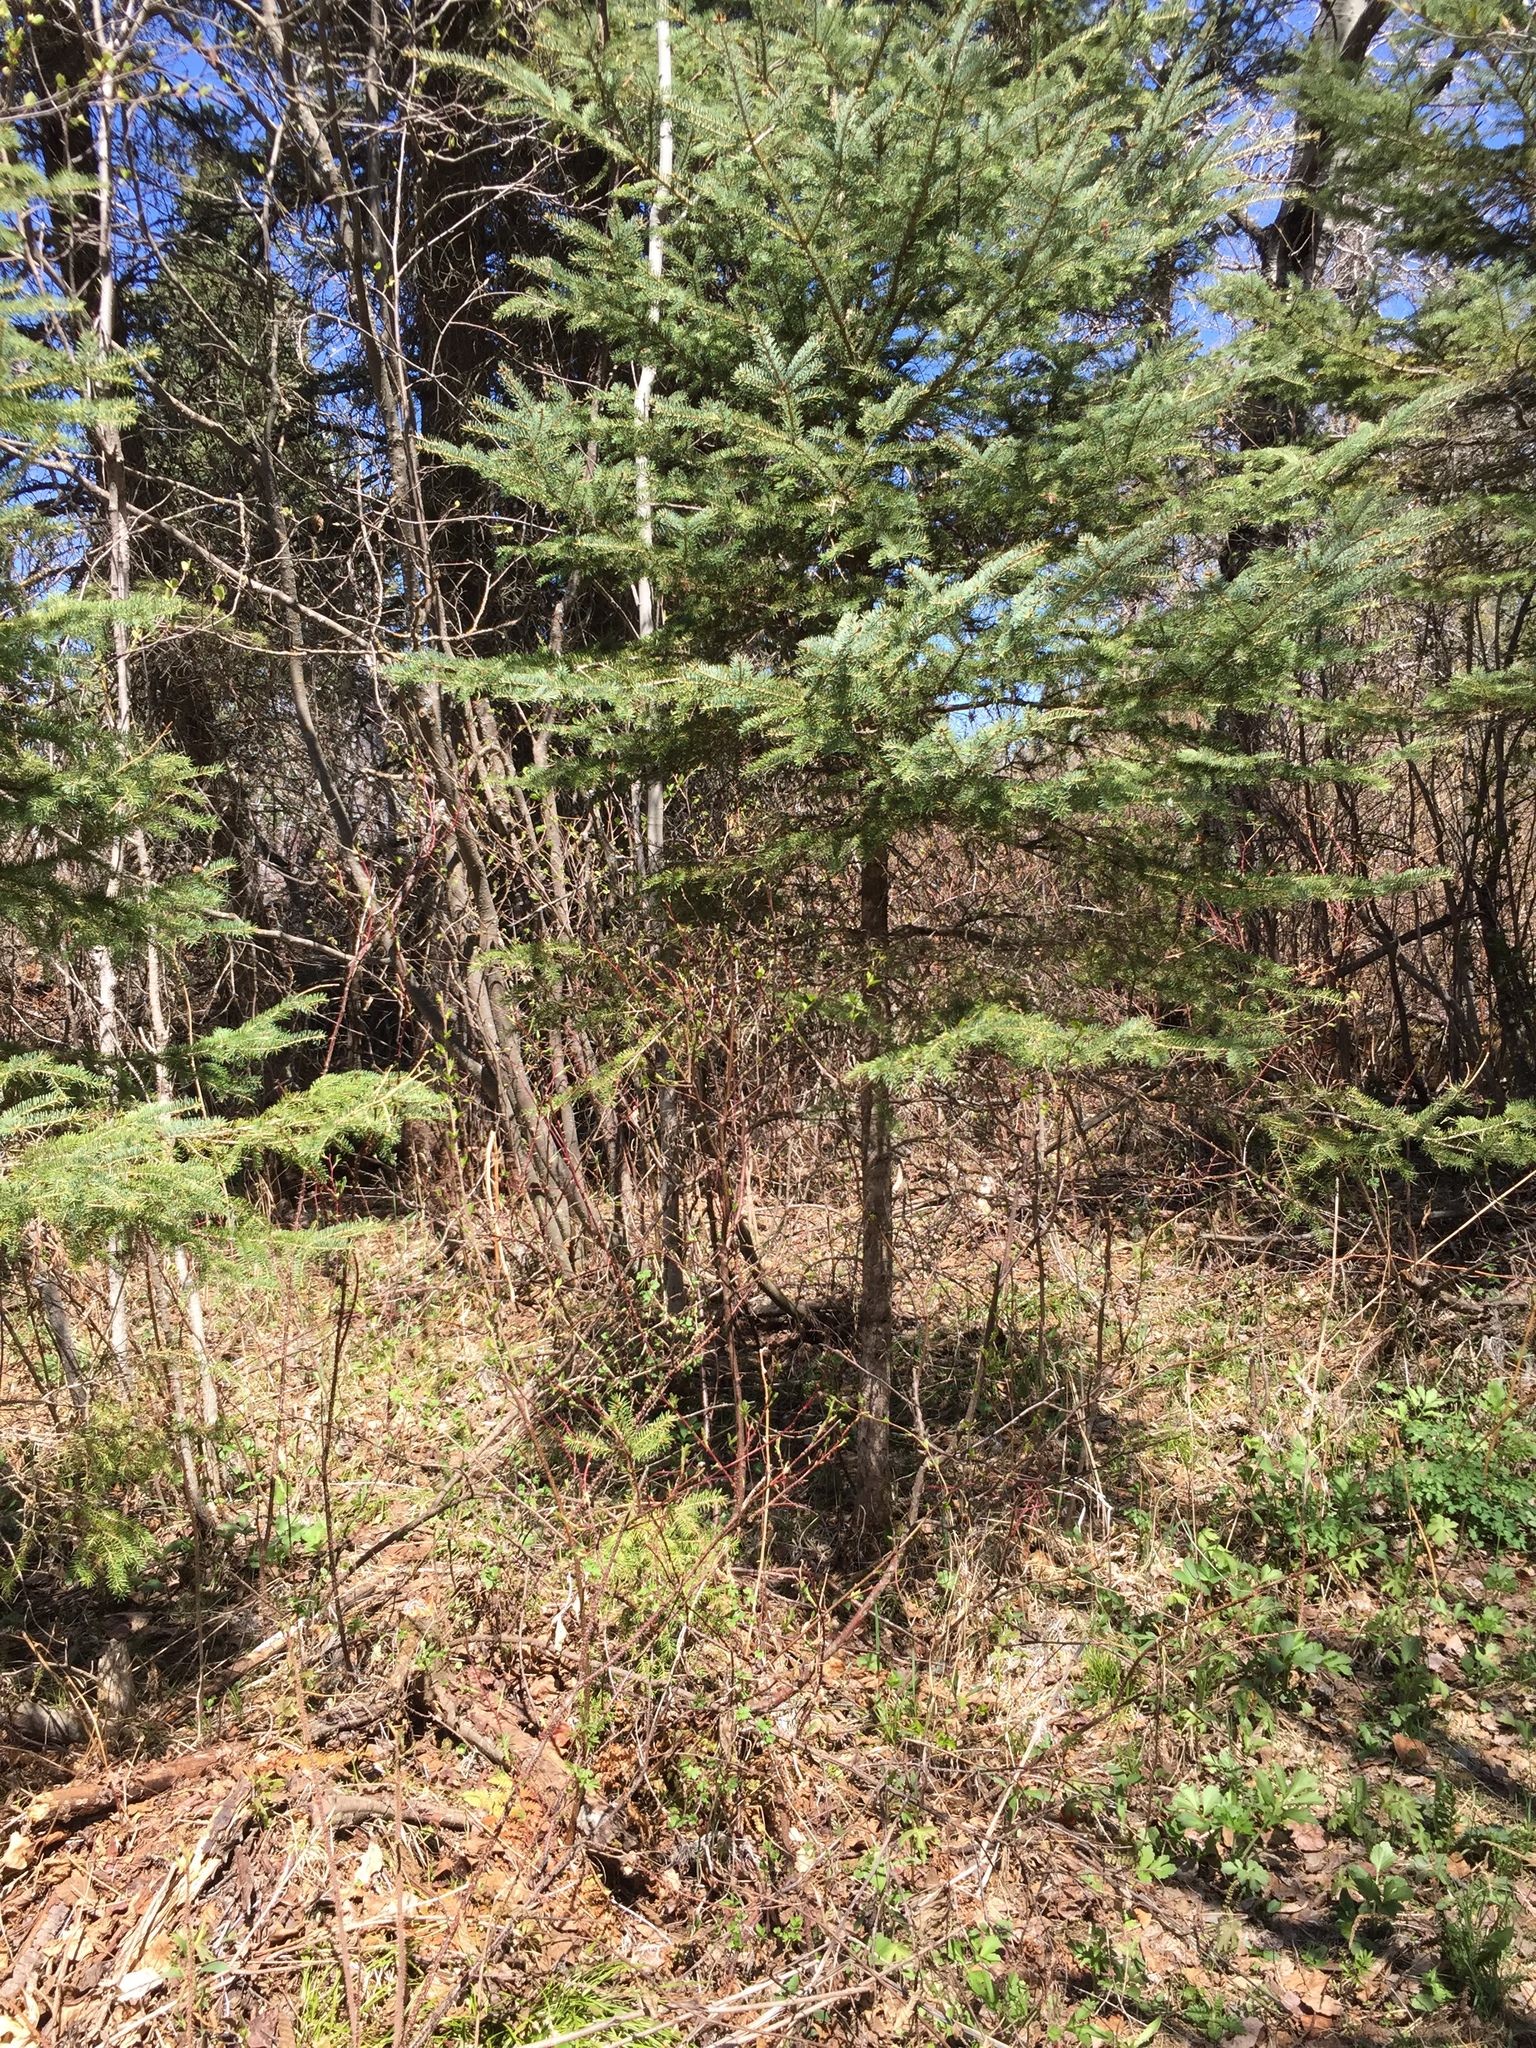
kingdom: Plantae
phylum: Tracheophyta
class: Pinopsida
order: Pinales
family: Pinaceae
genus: Picea
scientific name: Picea glauca
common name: White spruce
